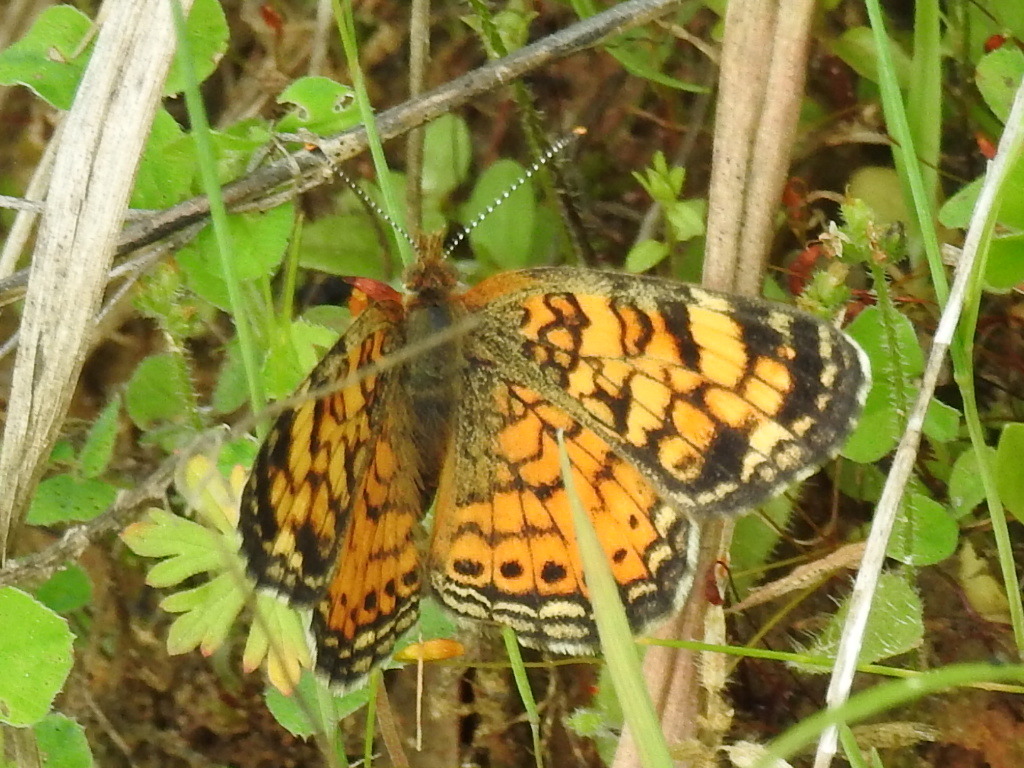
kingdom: Animalia
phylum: Arthropoda
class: Insecta
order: Lepidoptera
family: Nymphalidae
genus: Phyciodes
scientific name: Phyciodes tharos
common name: Pearl crescent
